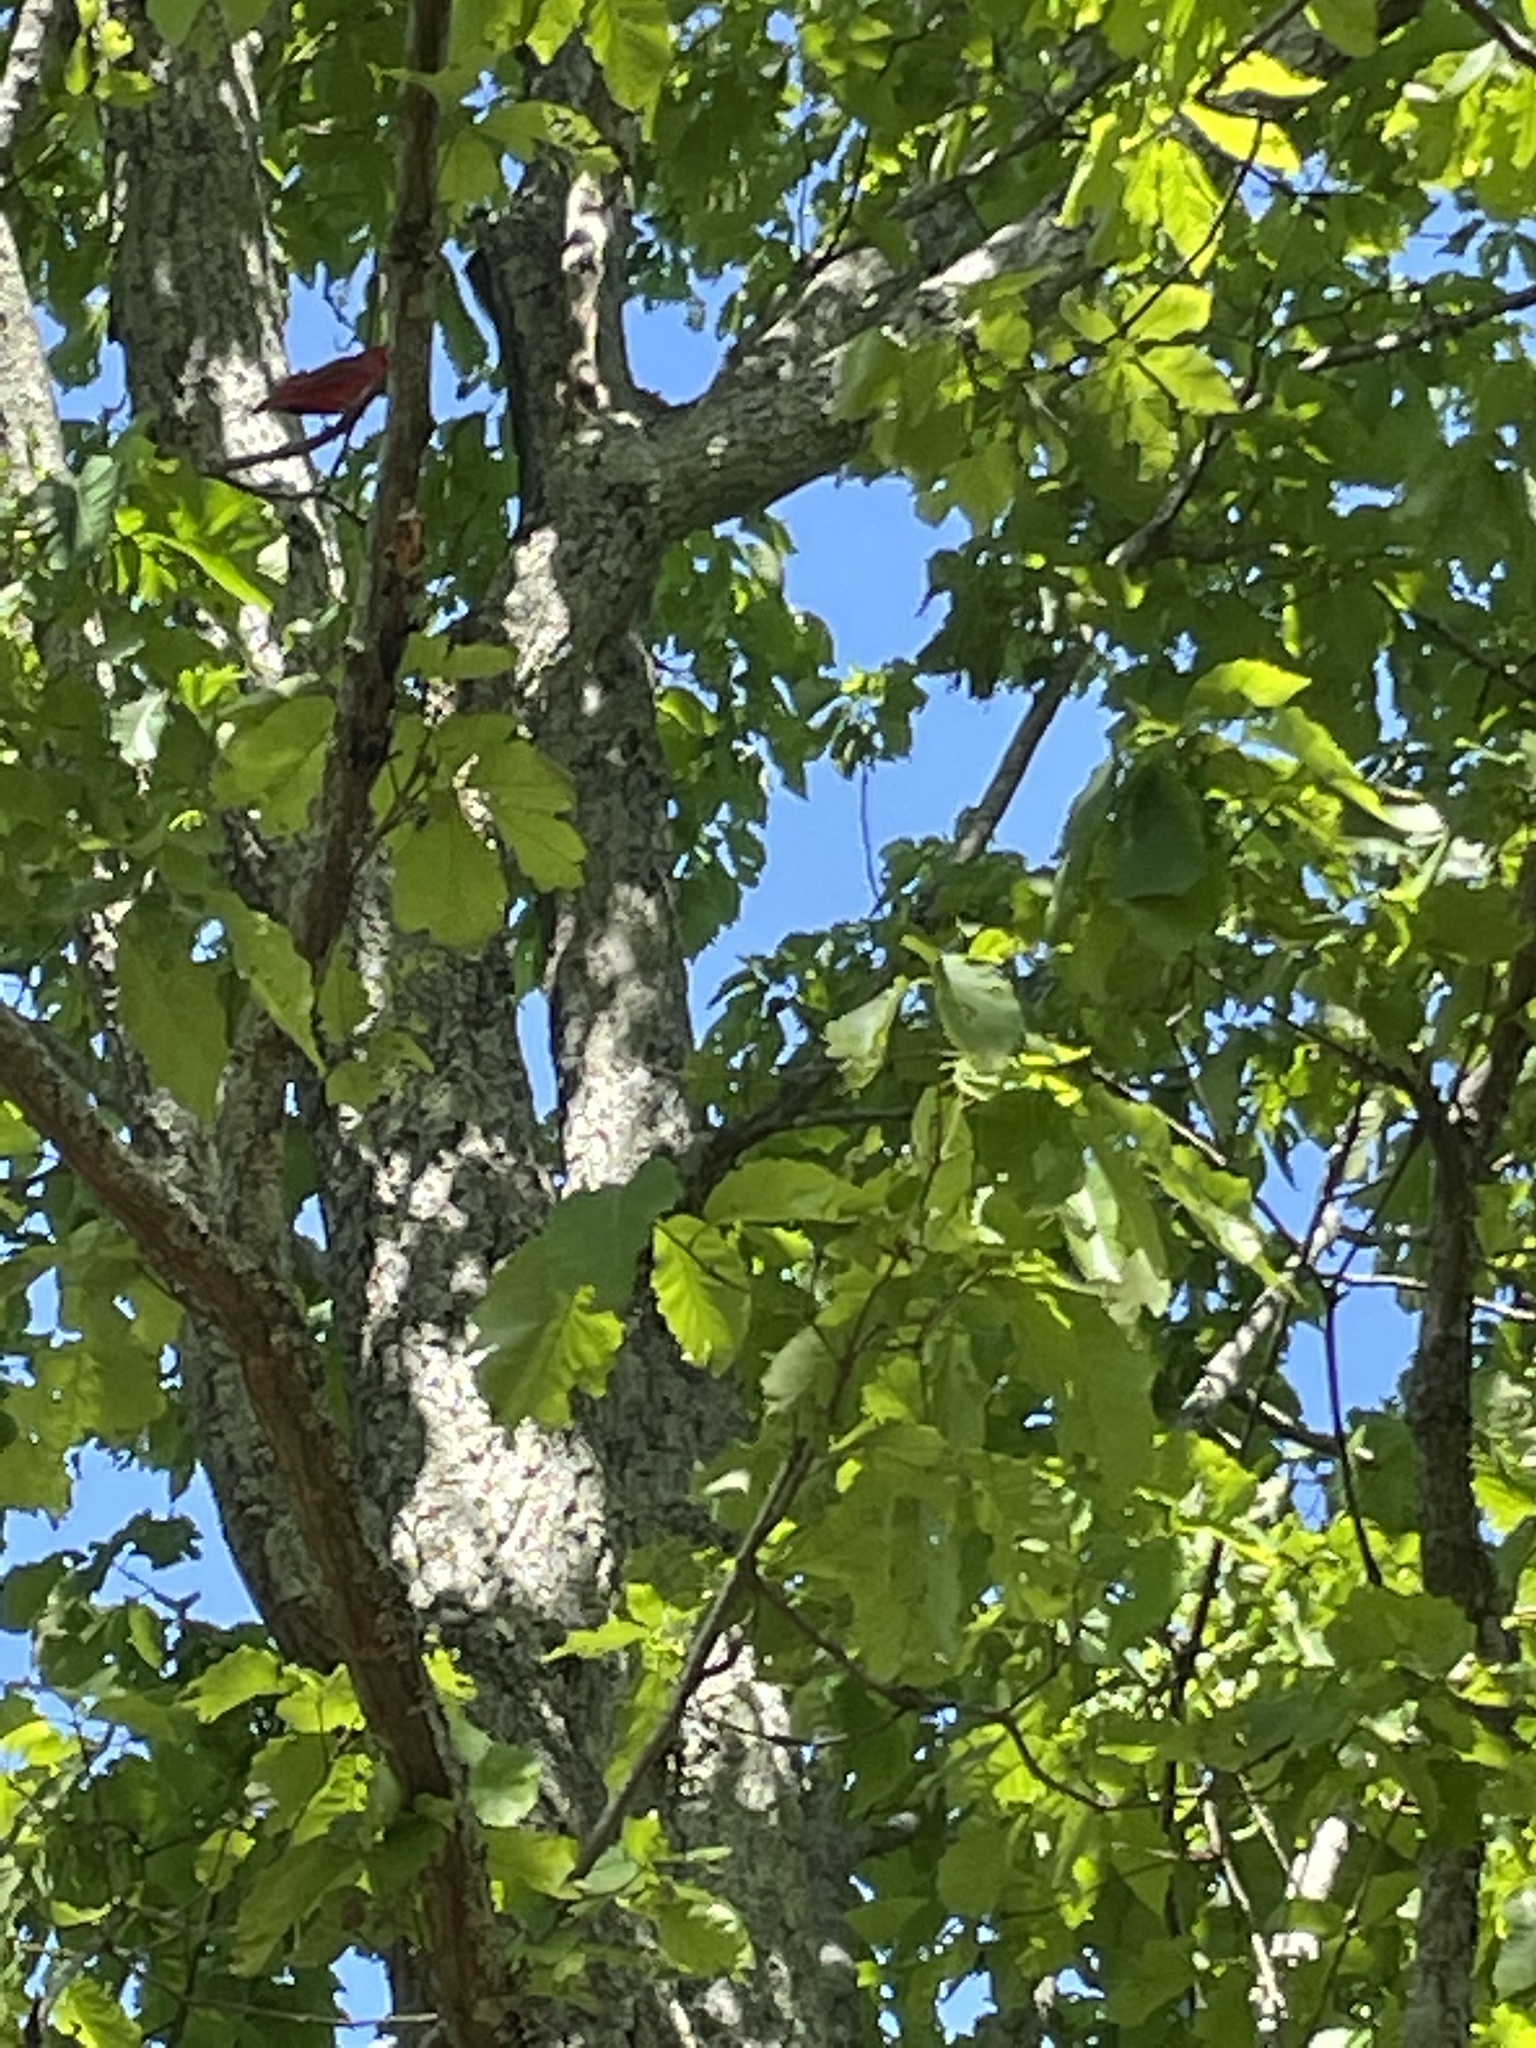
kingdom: Animalia
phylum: Chordata
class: Aves
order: Passeriformes
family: Cardinalidae
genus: Piranga
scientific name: Piranga rubra
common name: Summer tanager
